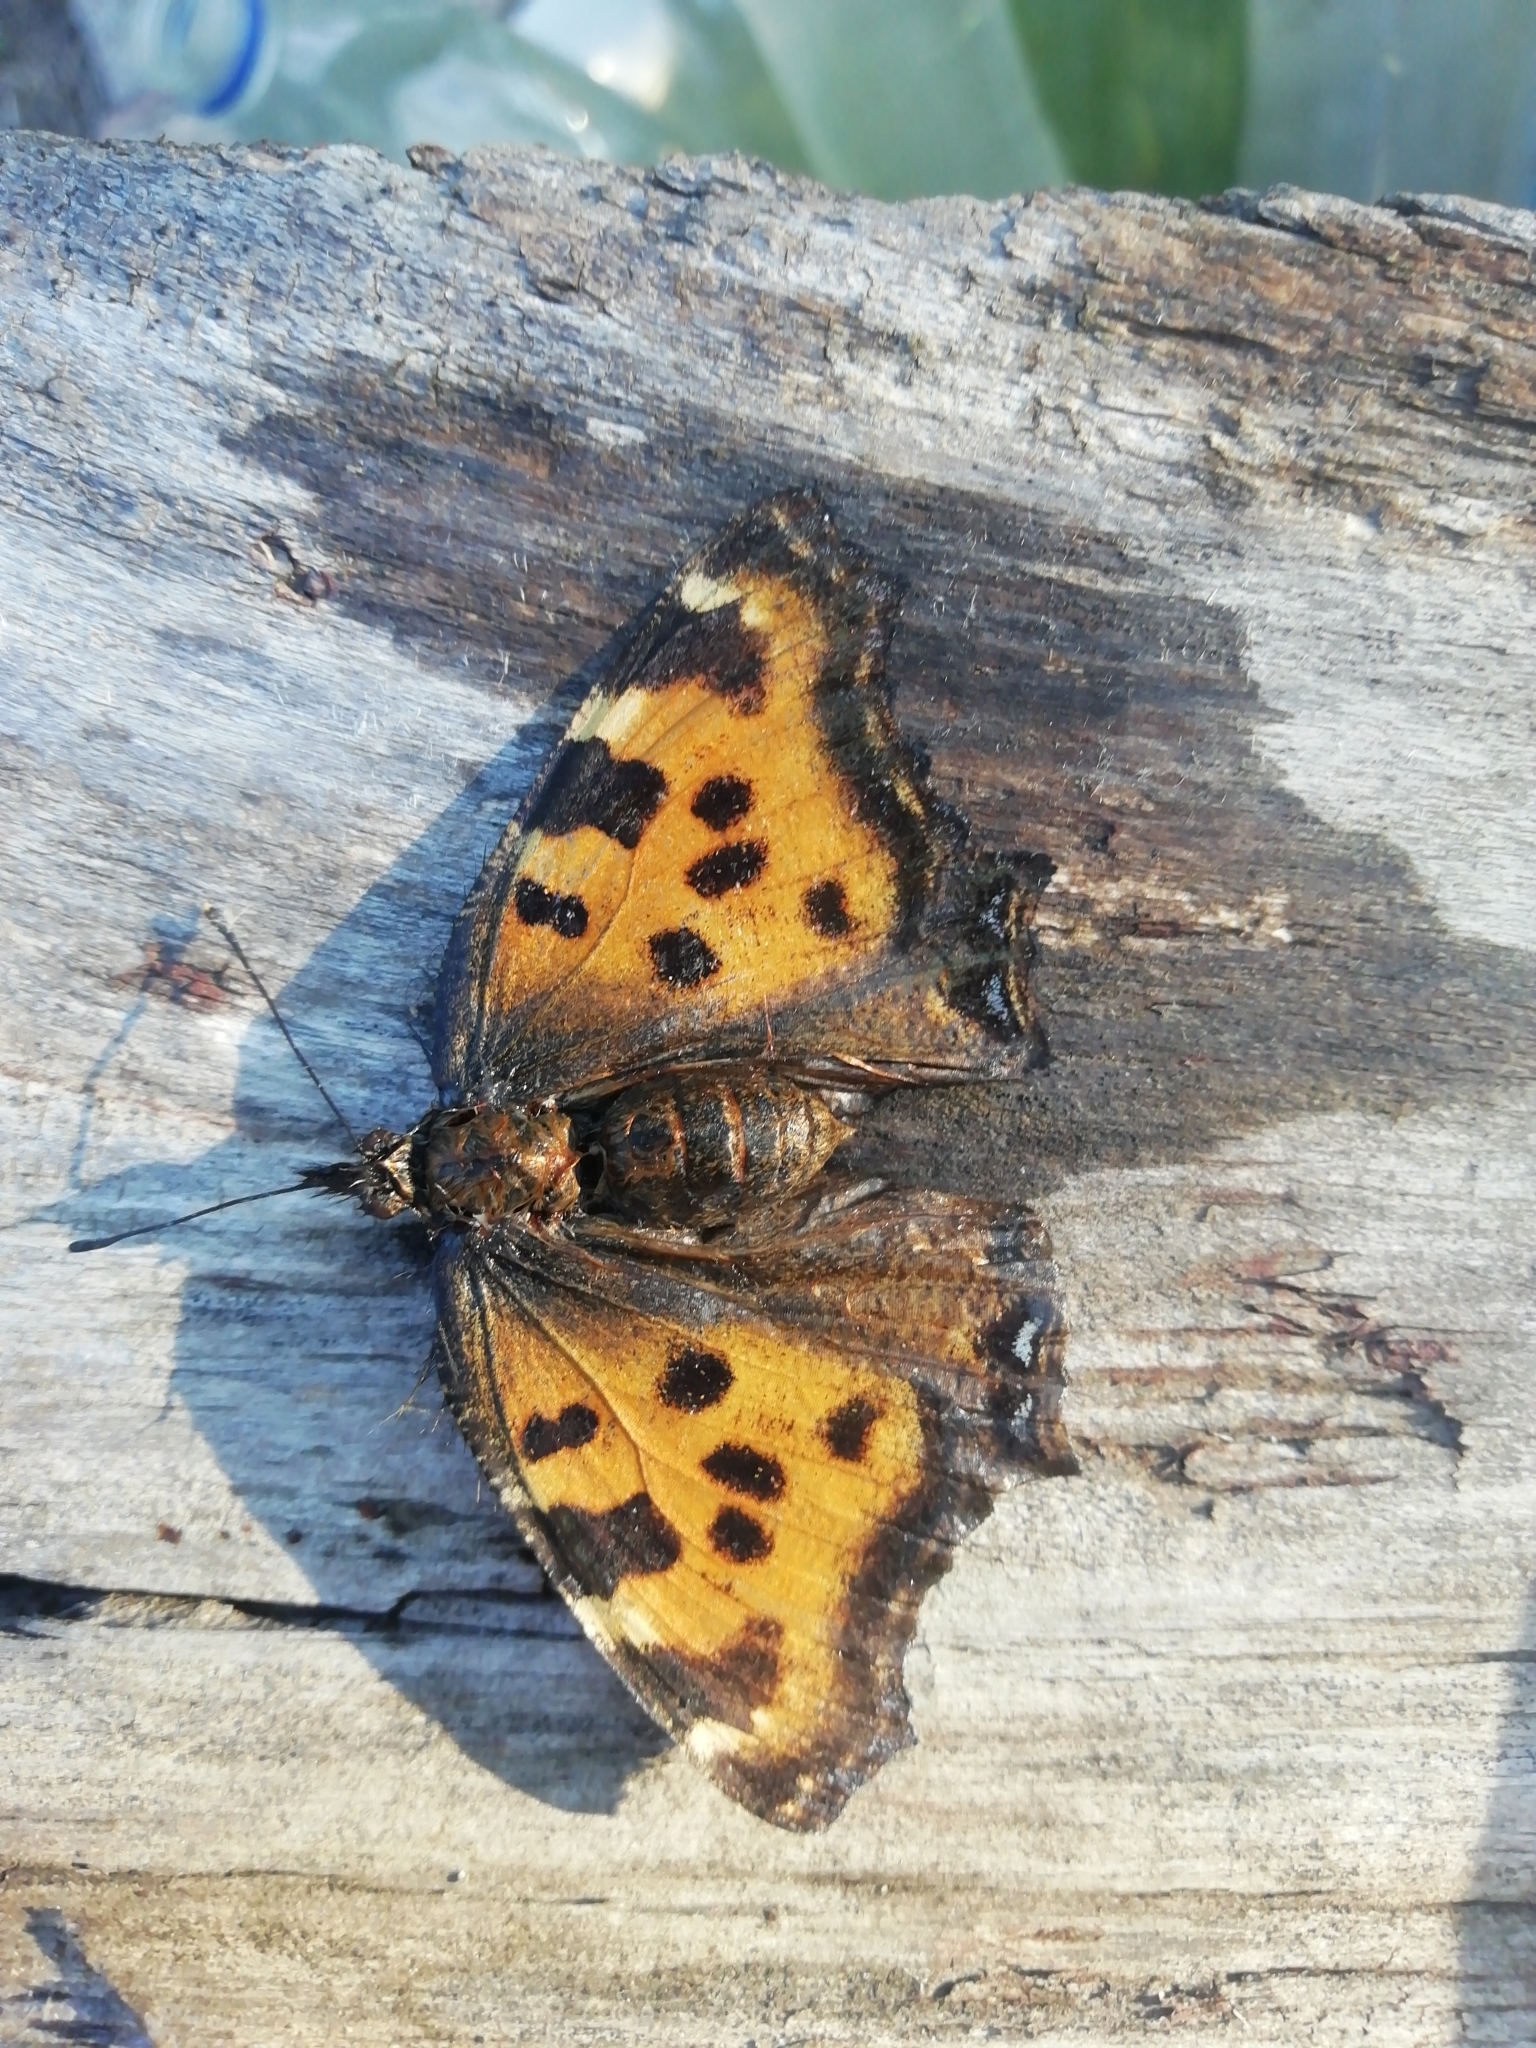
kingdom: Animalia
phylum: Arthropoda
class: Insecta
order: Lepidoptera
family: Nymphalidae
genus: Nymphalis
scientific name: Nymphalis polychloros
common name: Large tortoiseshell
